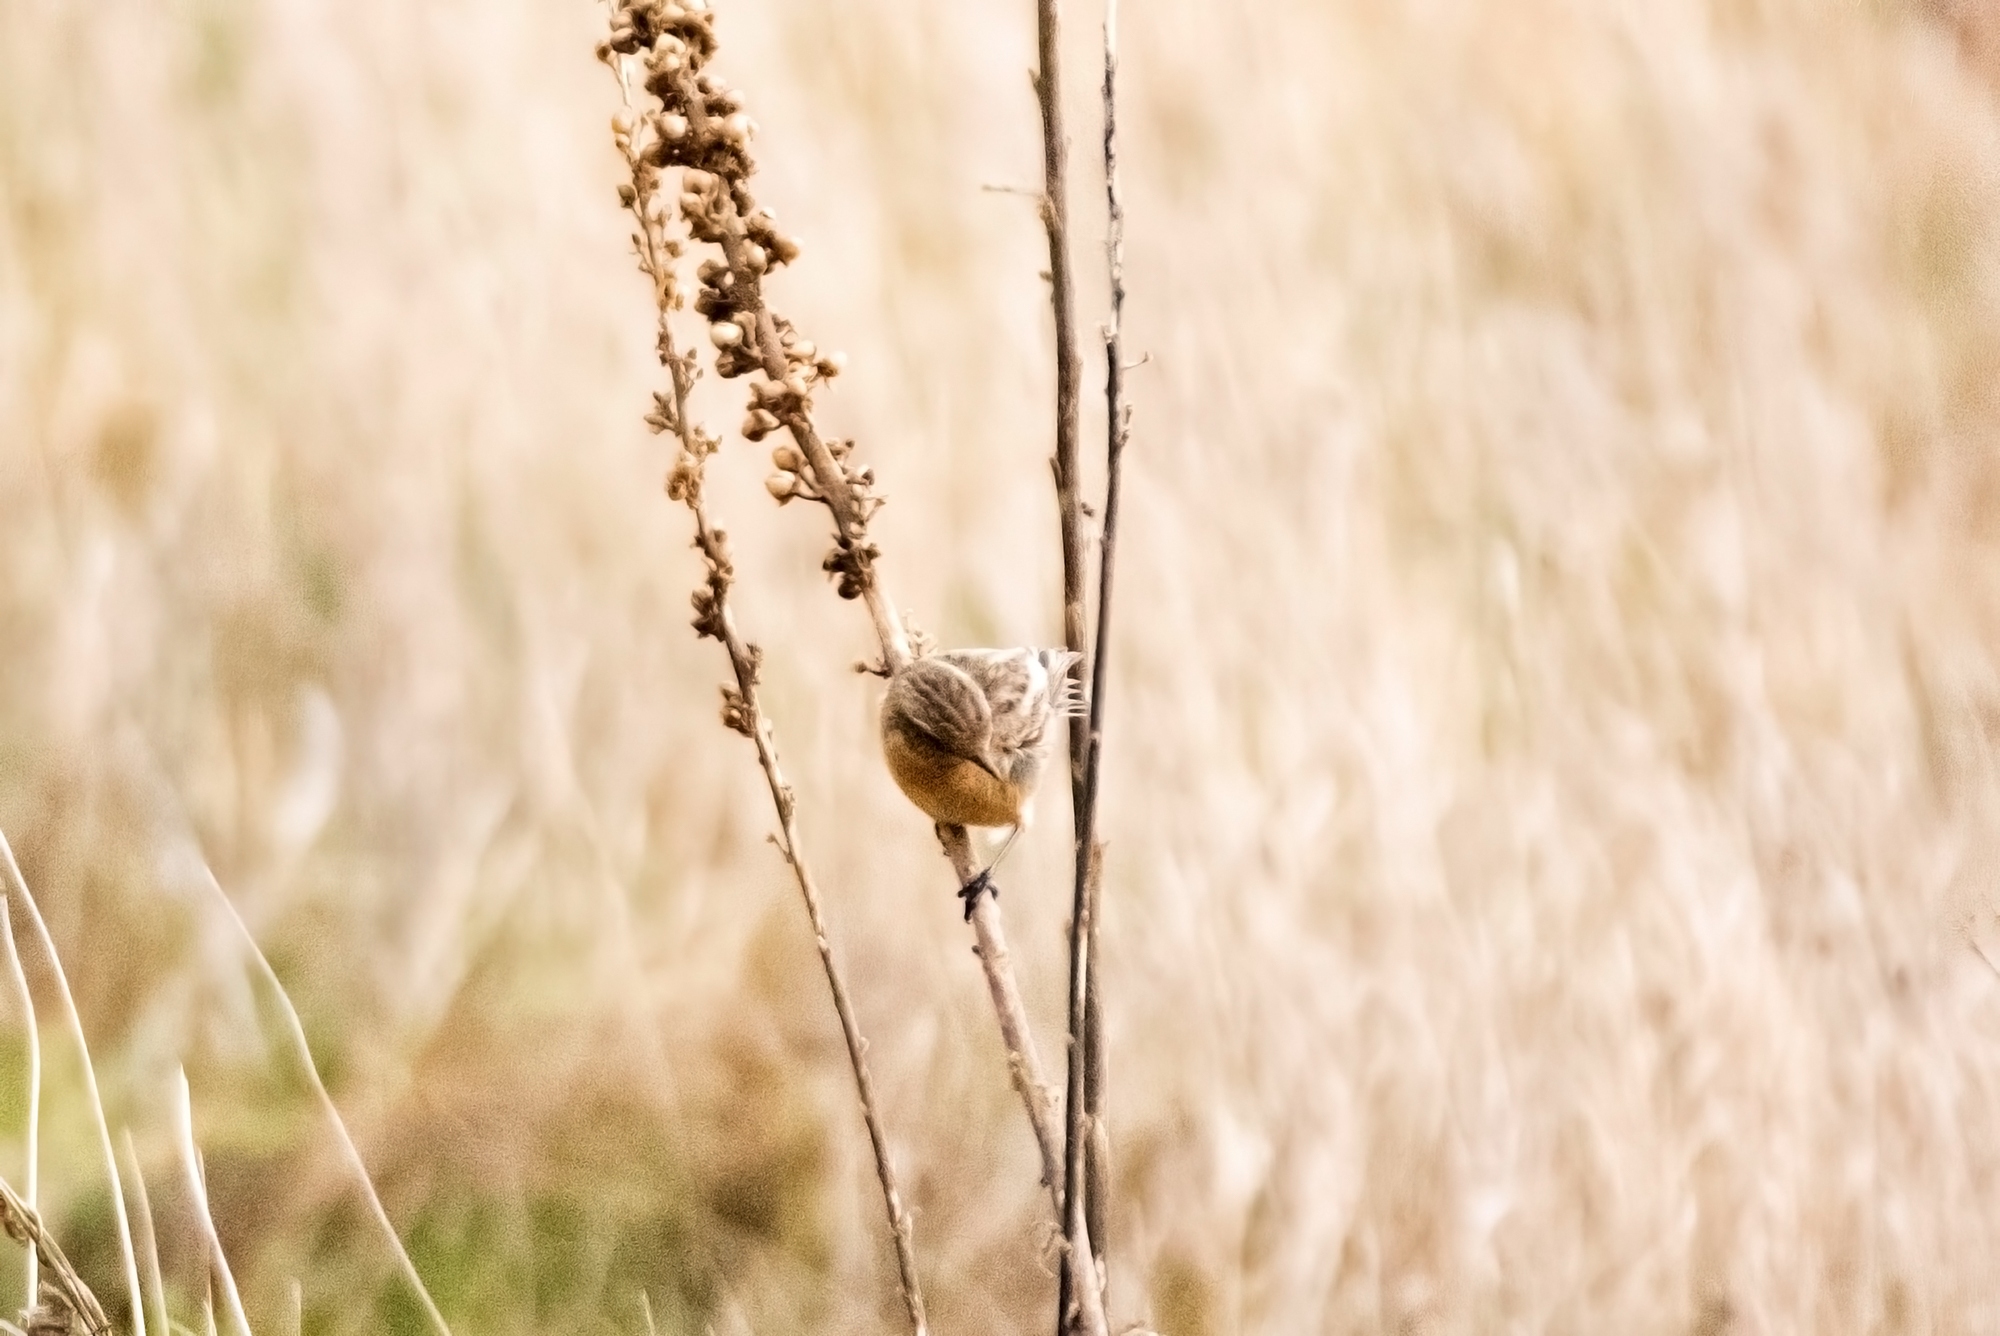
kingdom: Animalia
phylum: Chordata
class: Aves
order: Passeriformes
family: Muscicapidae
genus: Saxicola
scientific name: Saxicola maurus
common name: Siberian stonechat
